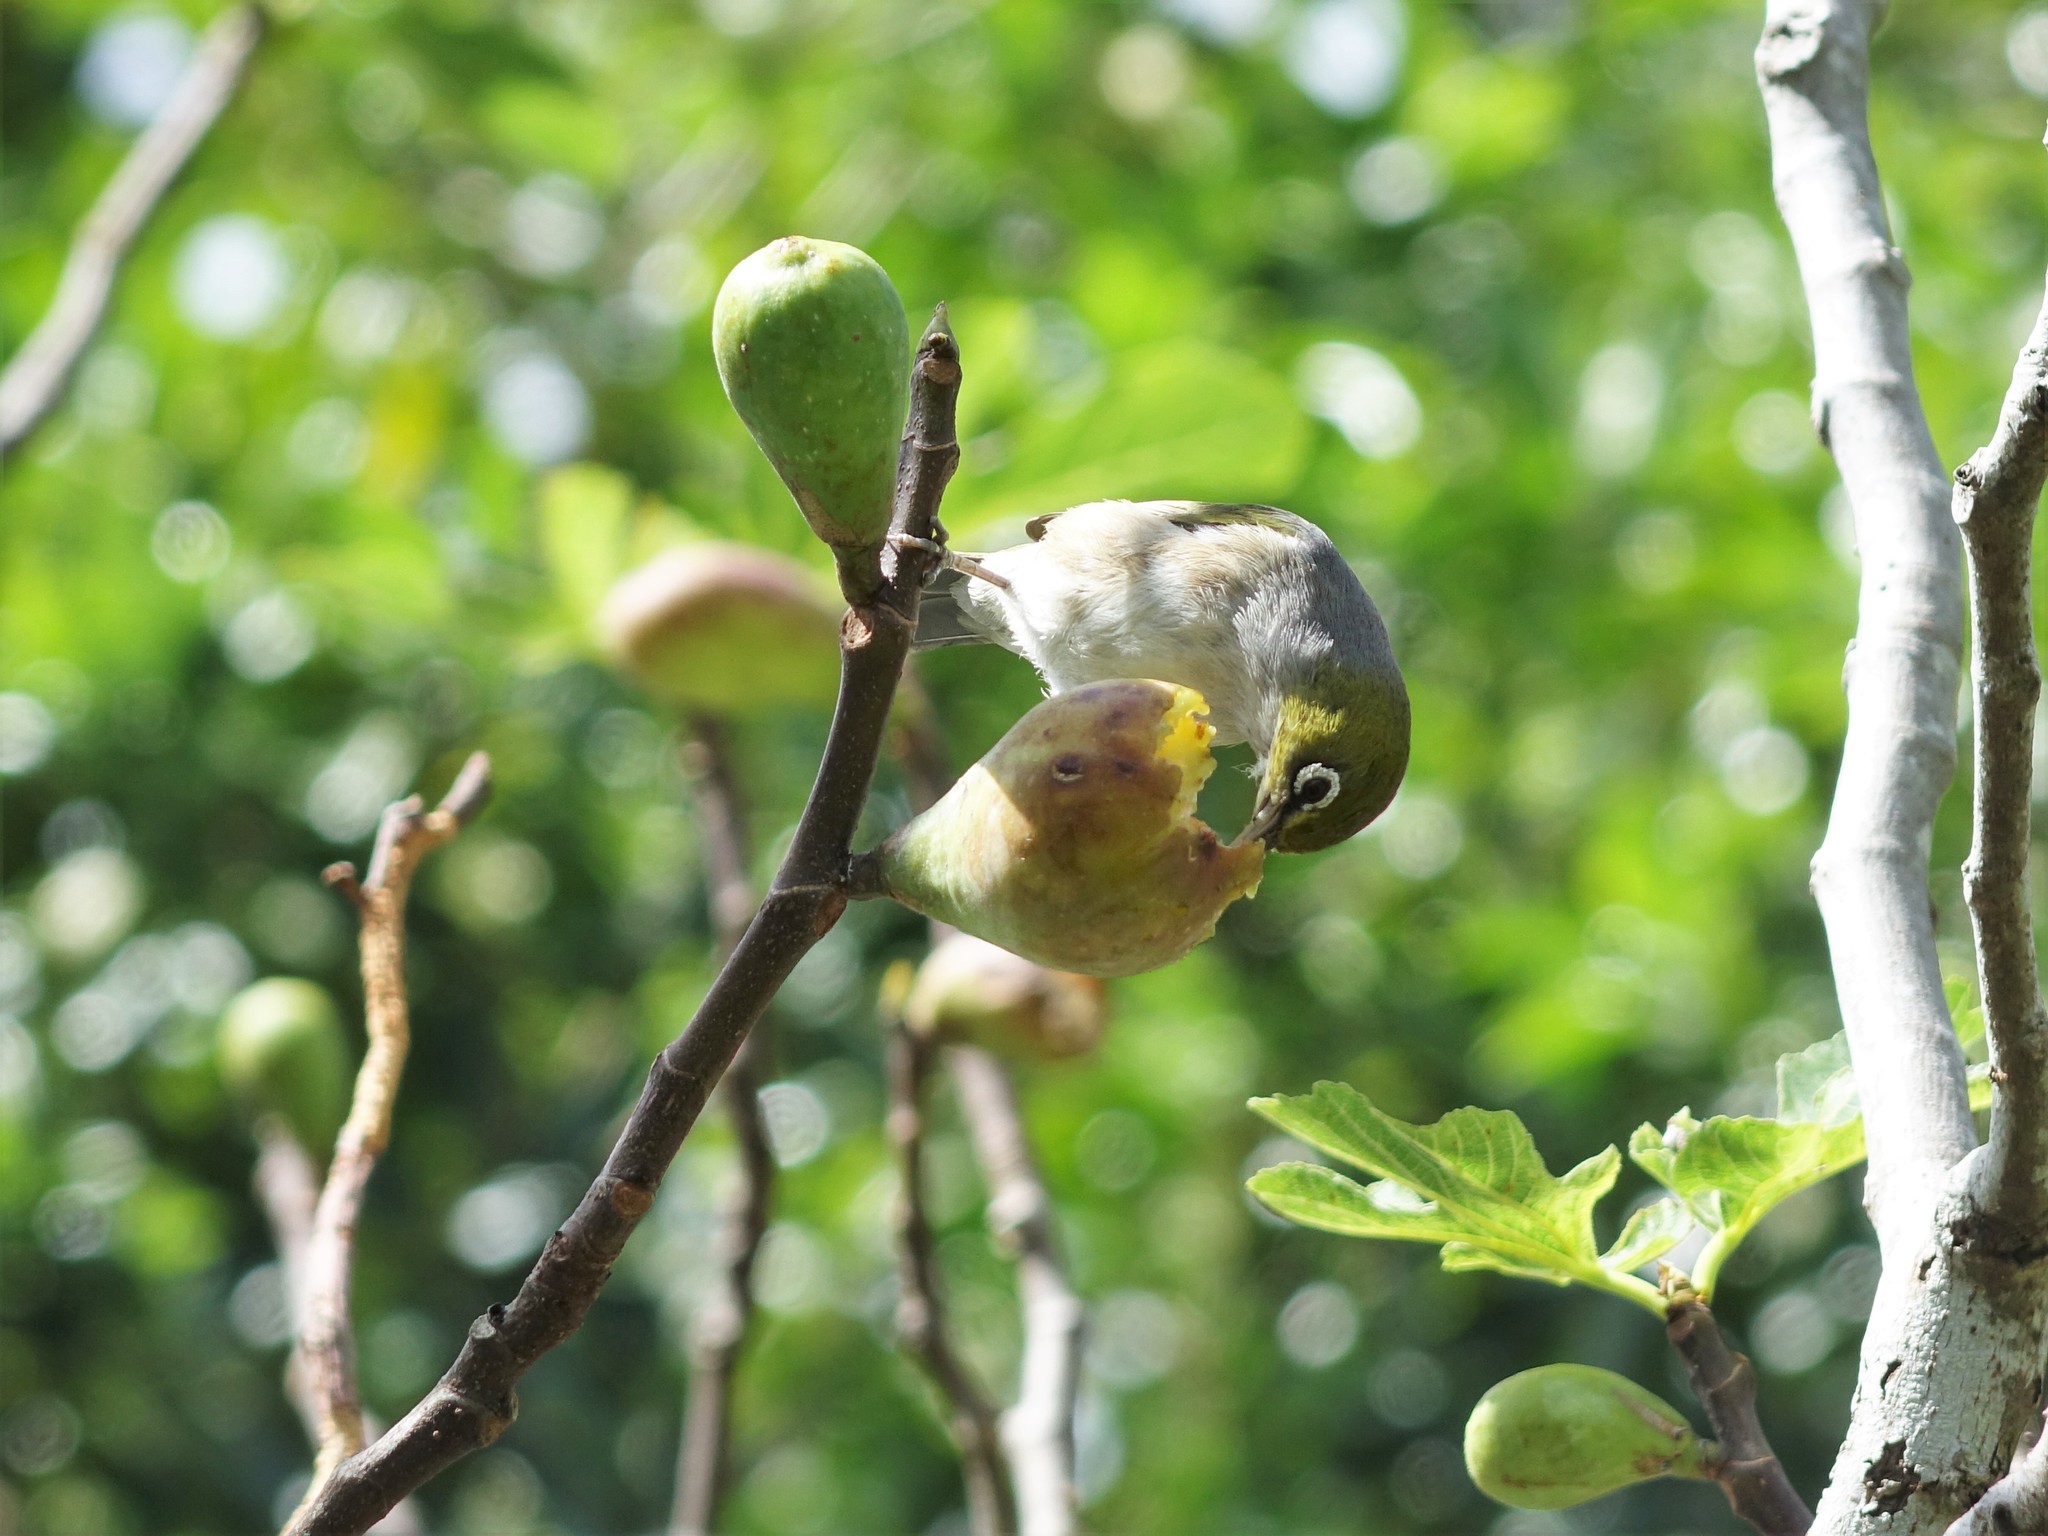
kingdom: Animalia
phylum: Chordata
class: Aves
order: Passeriformes
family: Zosteropidae
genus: Zosterops
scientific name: Zosterops lateralis
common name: Silvereye
